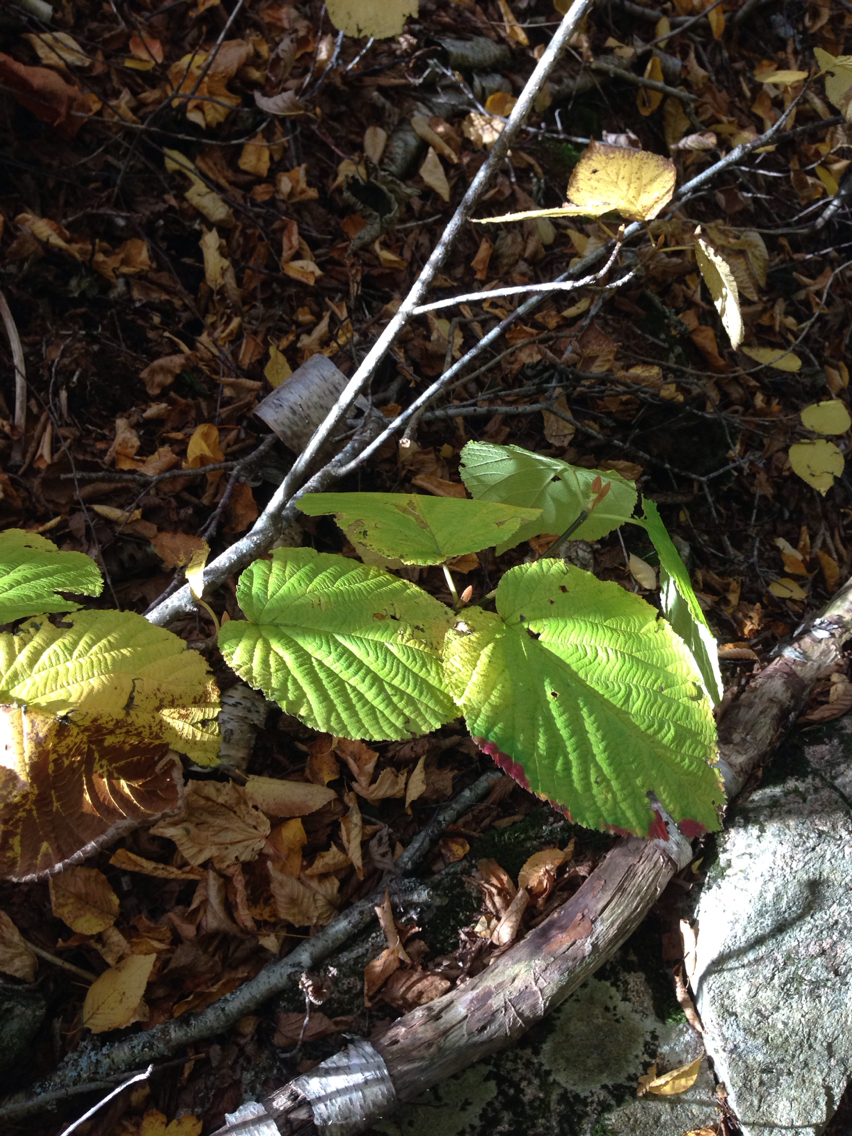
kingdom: Plantae
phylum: Tracheophyta
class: Magnoliopsida
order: Dipsacales
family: Viburnaceae
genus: Viburnum
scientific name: Viburnum lantanoides
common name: Hobblebush
